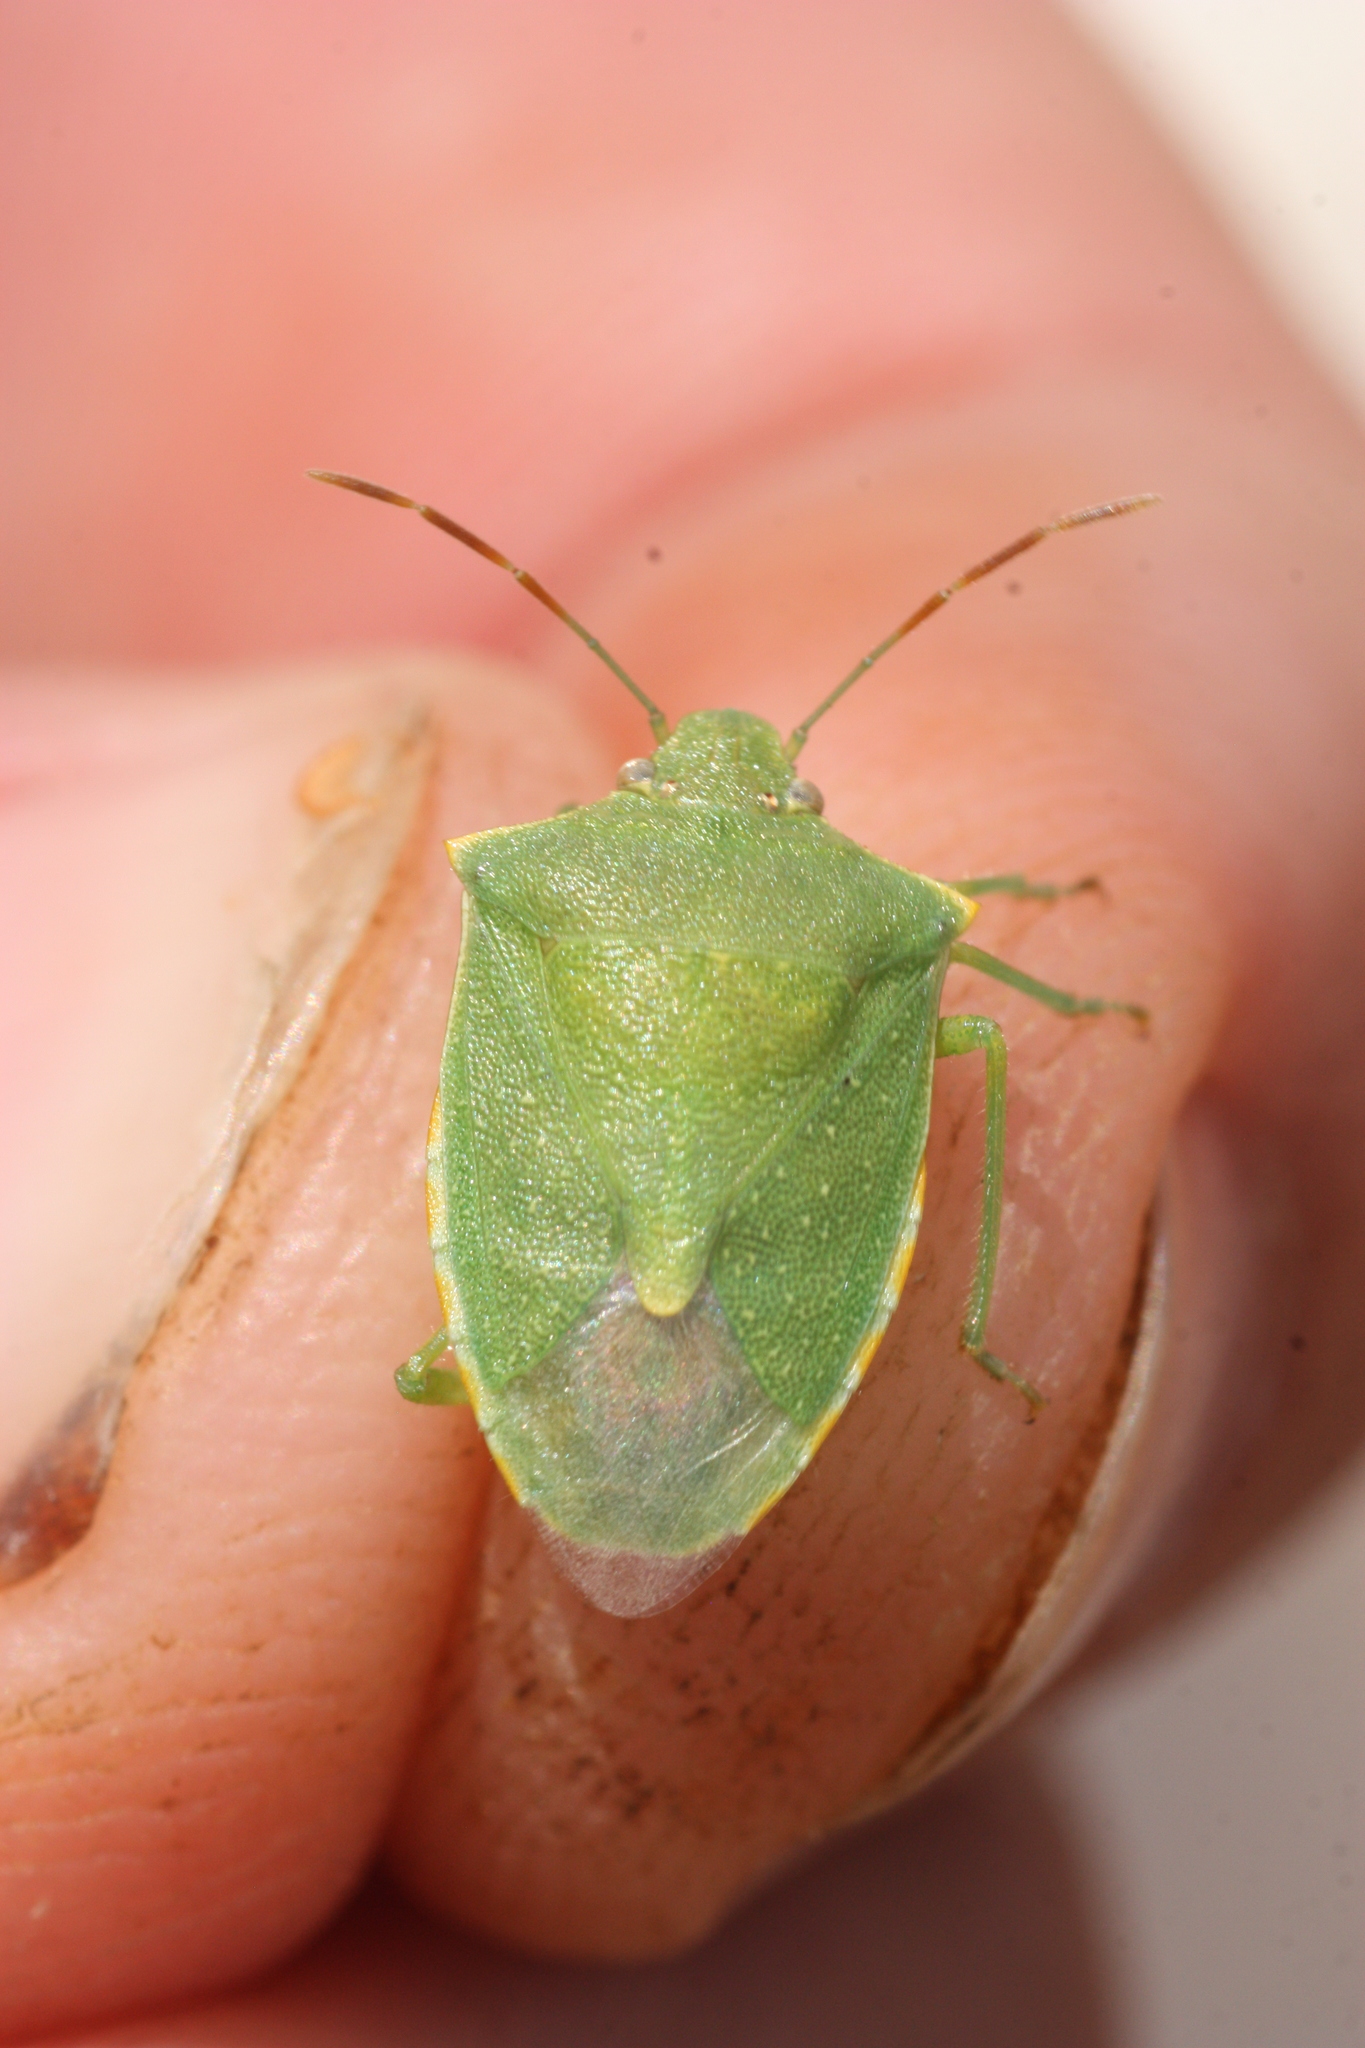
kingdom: Animalia
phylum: Arthropoda
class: Insecta
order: Hemiptera
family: Pentatomidae
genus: Thyanta
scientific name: Thyanta accerra
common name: Stink bug
